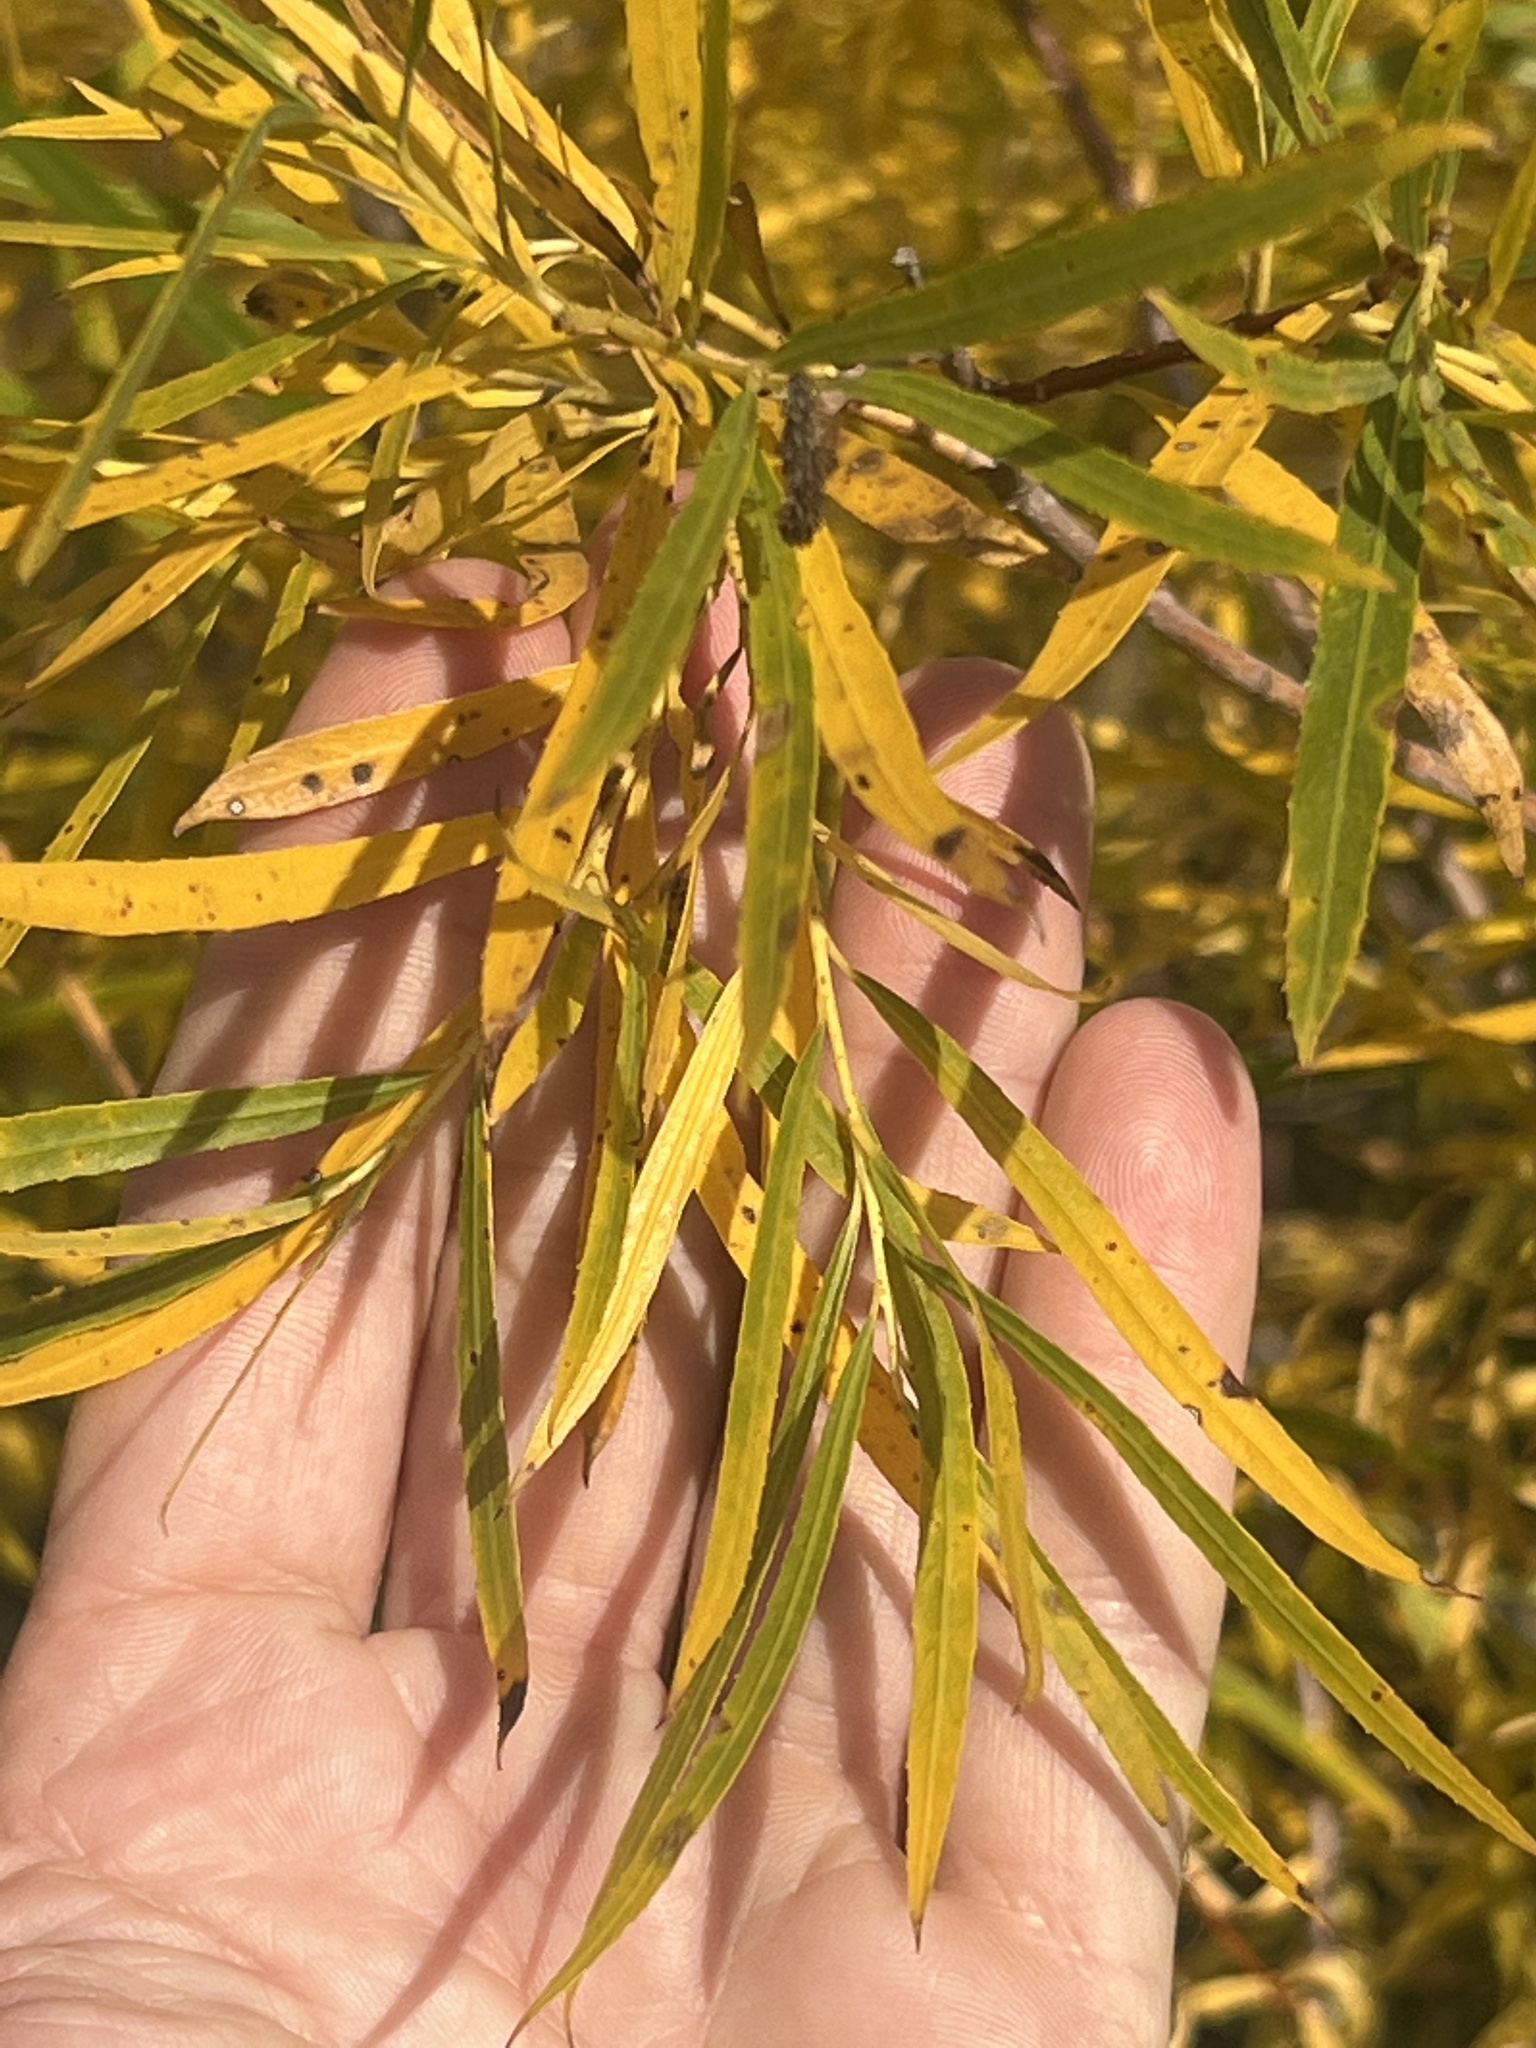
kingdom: Plantae
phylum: Tracheophyta
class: Magnoliopsida
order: Malpighiales
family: Salicaceae
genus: Salix
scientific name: Salix interior
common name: Sandbar willow
